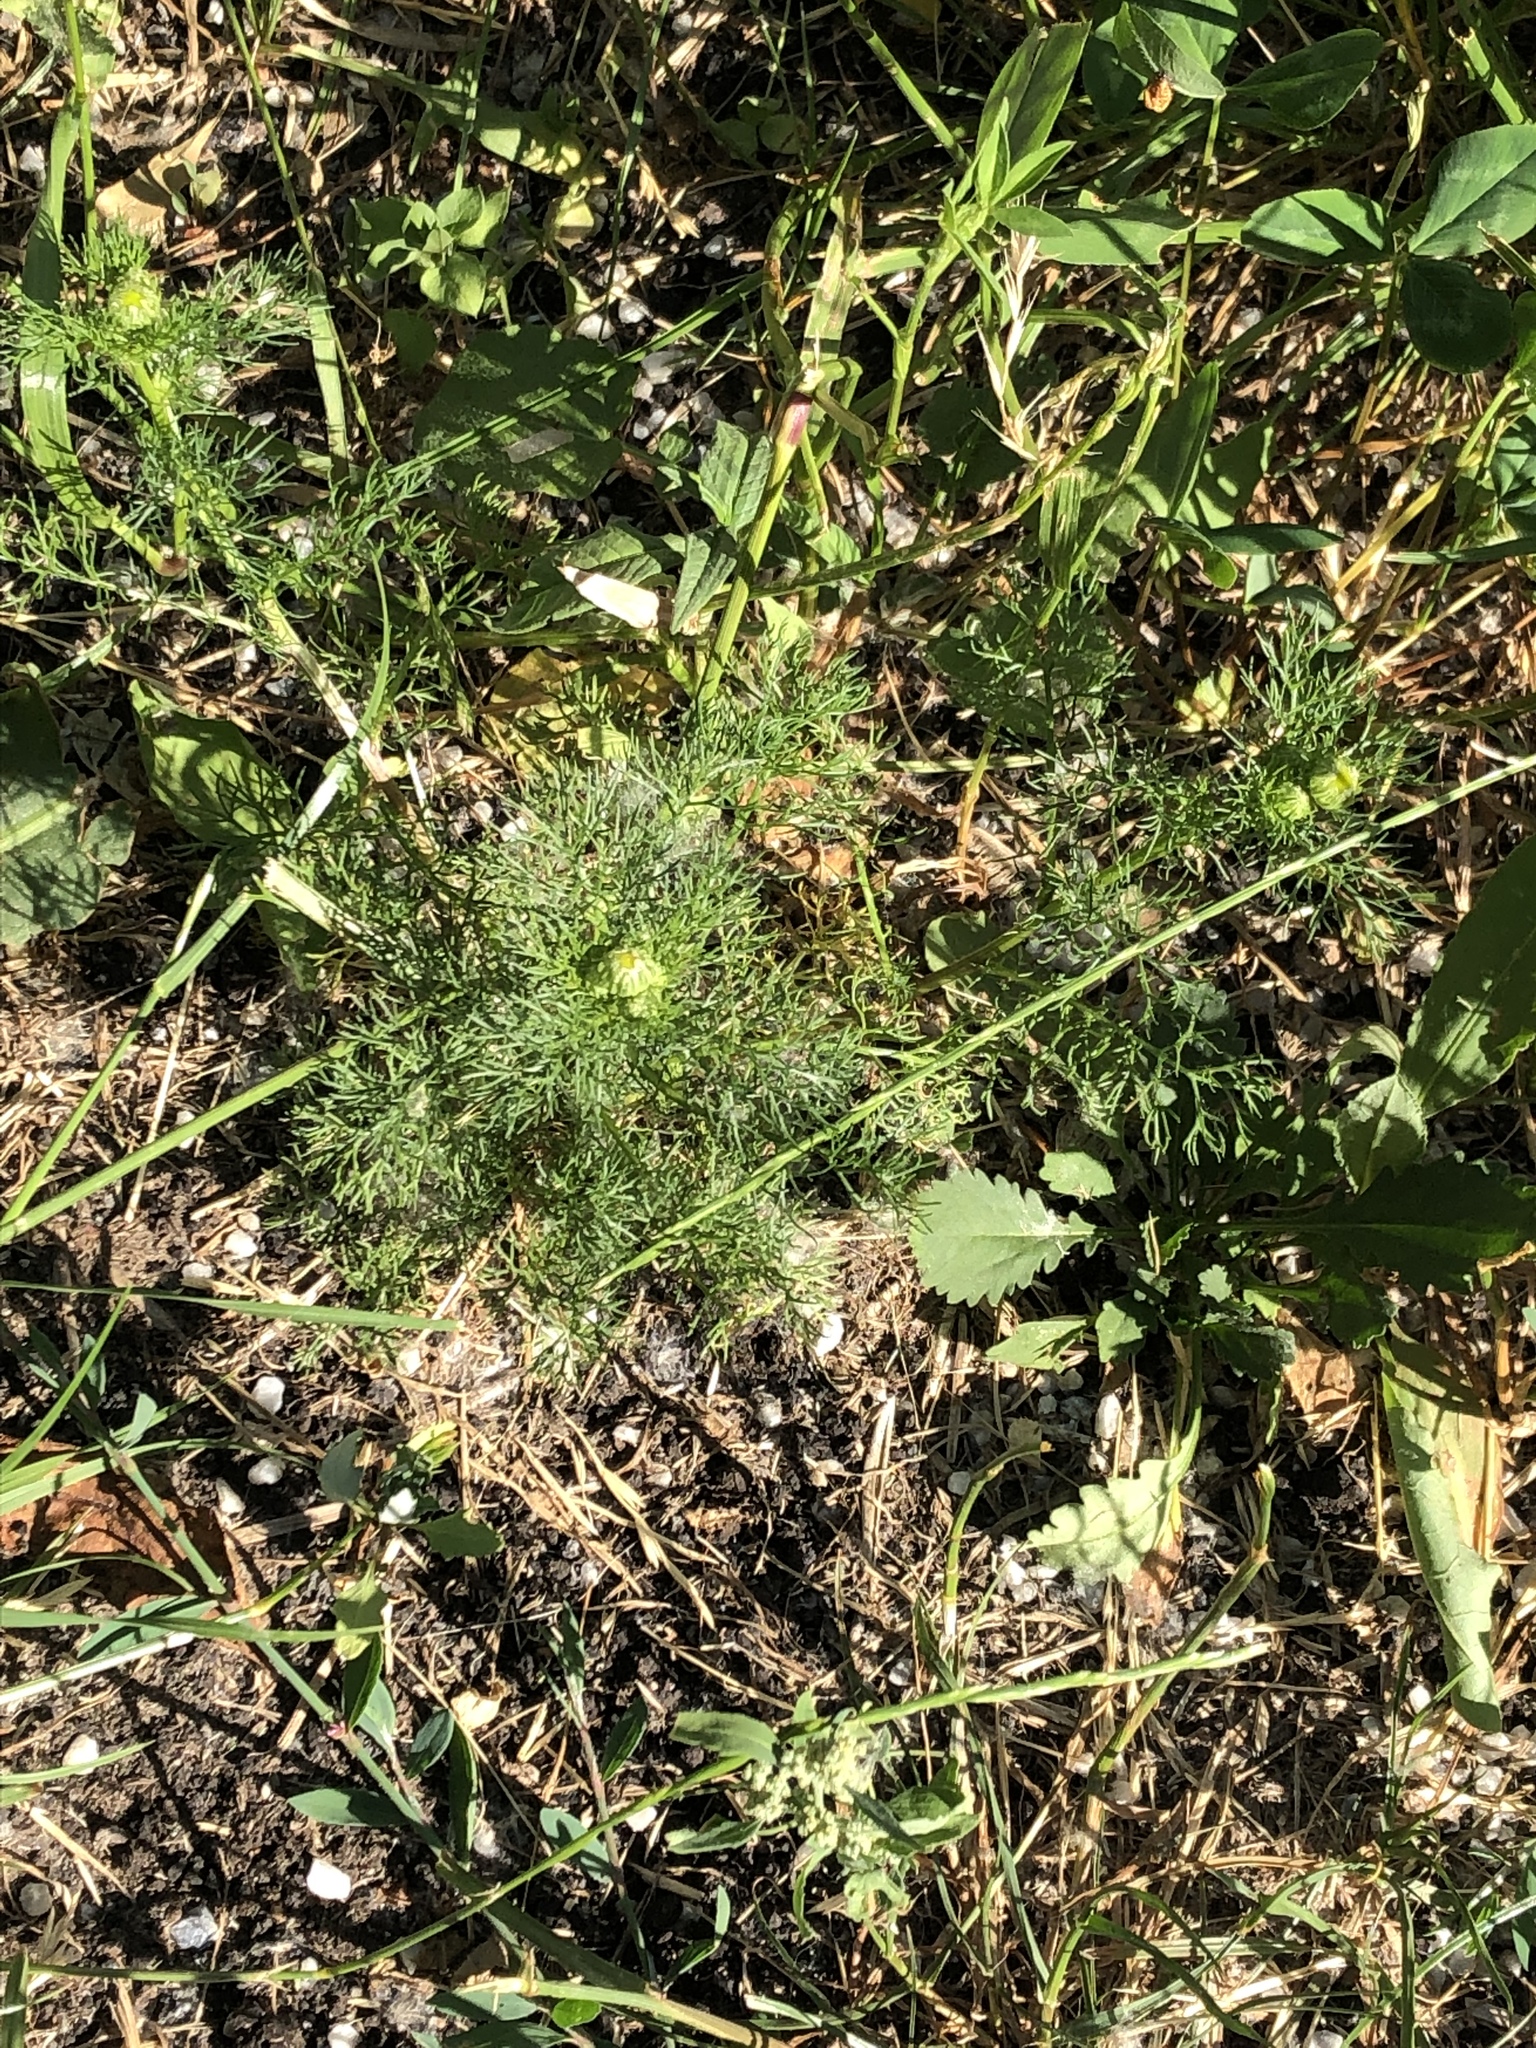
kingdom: Plantae
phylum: Tracheophyta
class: Magnoliopsida
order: Asterales
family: Asteraceae
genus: Matricaria
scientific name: Matricaria discoidea
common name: Disc mayweed
